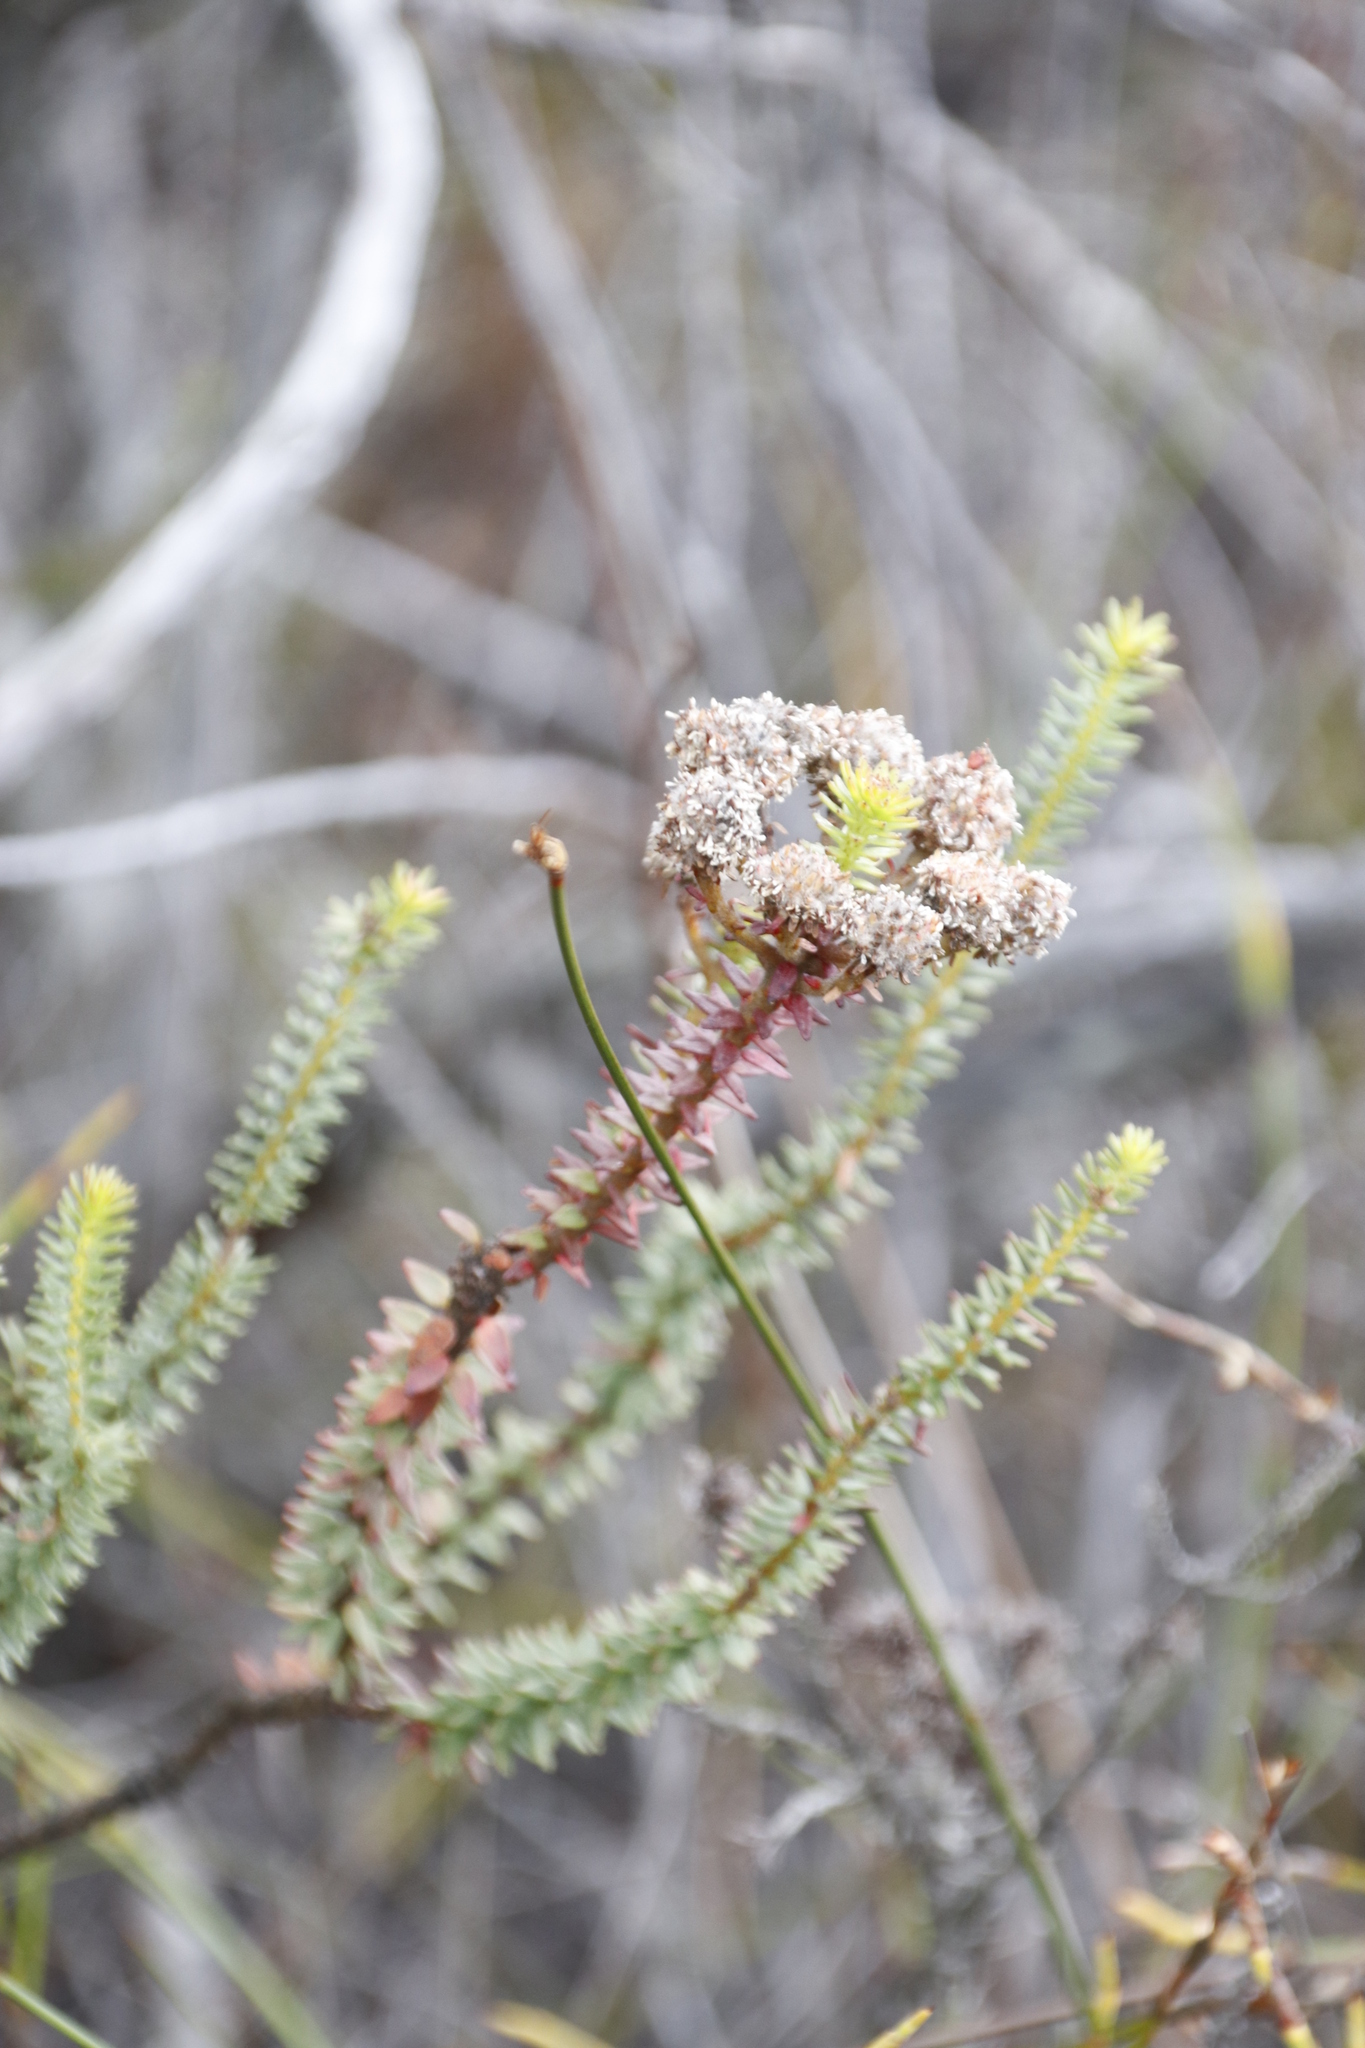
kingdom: Plantae
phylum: Tracheophyta
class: Magnoliopsida
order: Bruniales
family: Bruniaceae
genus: Berzelia
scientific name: Berzelia cordifolia
